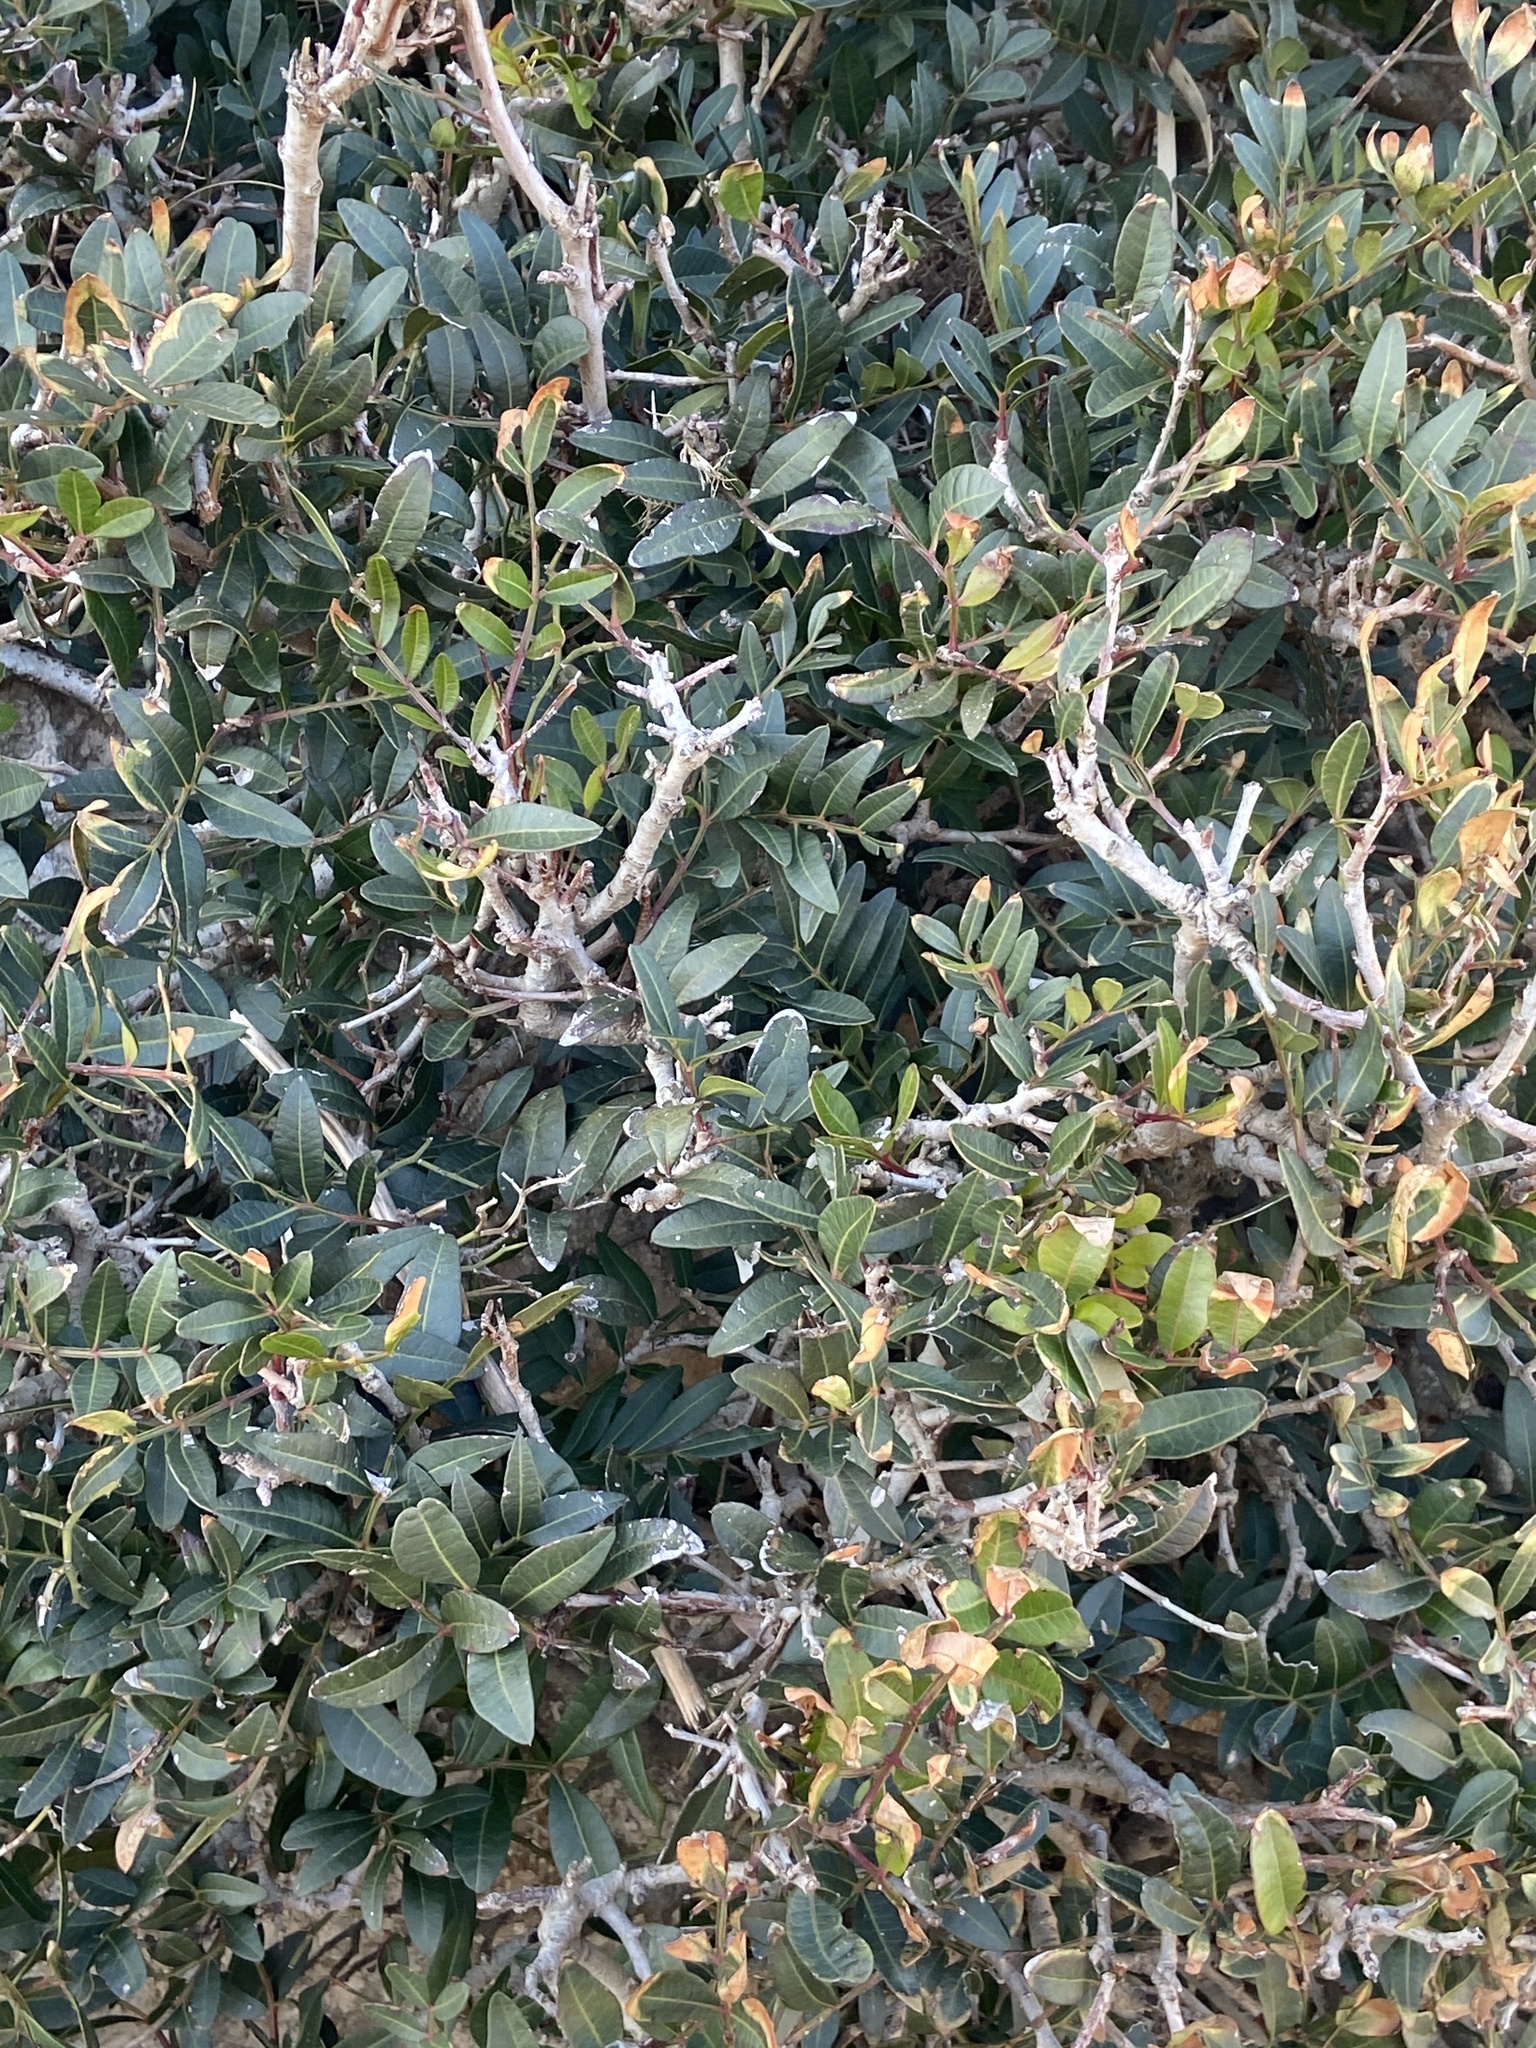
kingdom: Plantae
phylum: Tracheophyta
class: Magnoliopsida
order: Sapindales
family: Anacardiaceae
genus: Pistacia
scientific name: Pistacia lentiscus
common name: Lentisk
